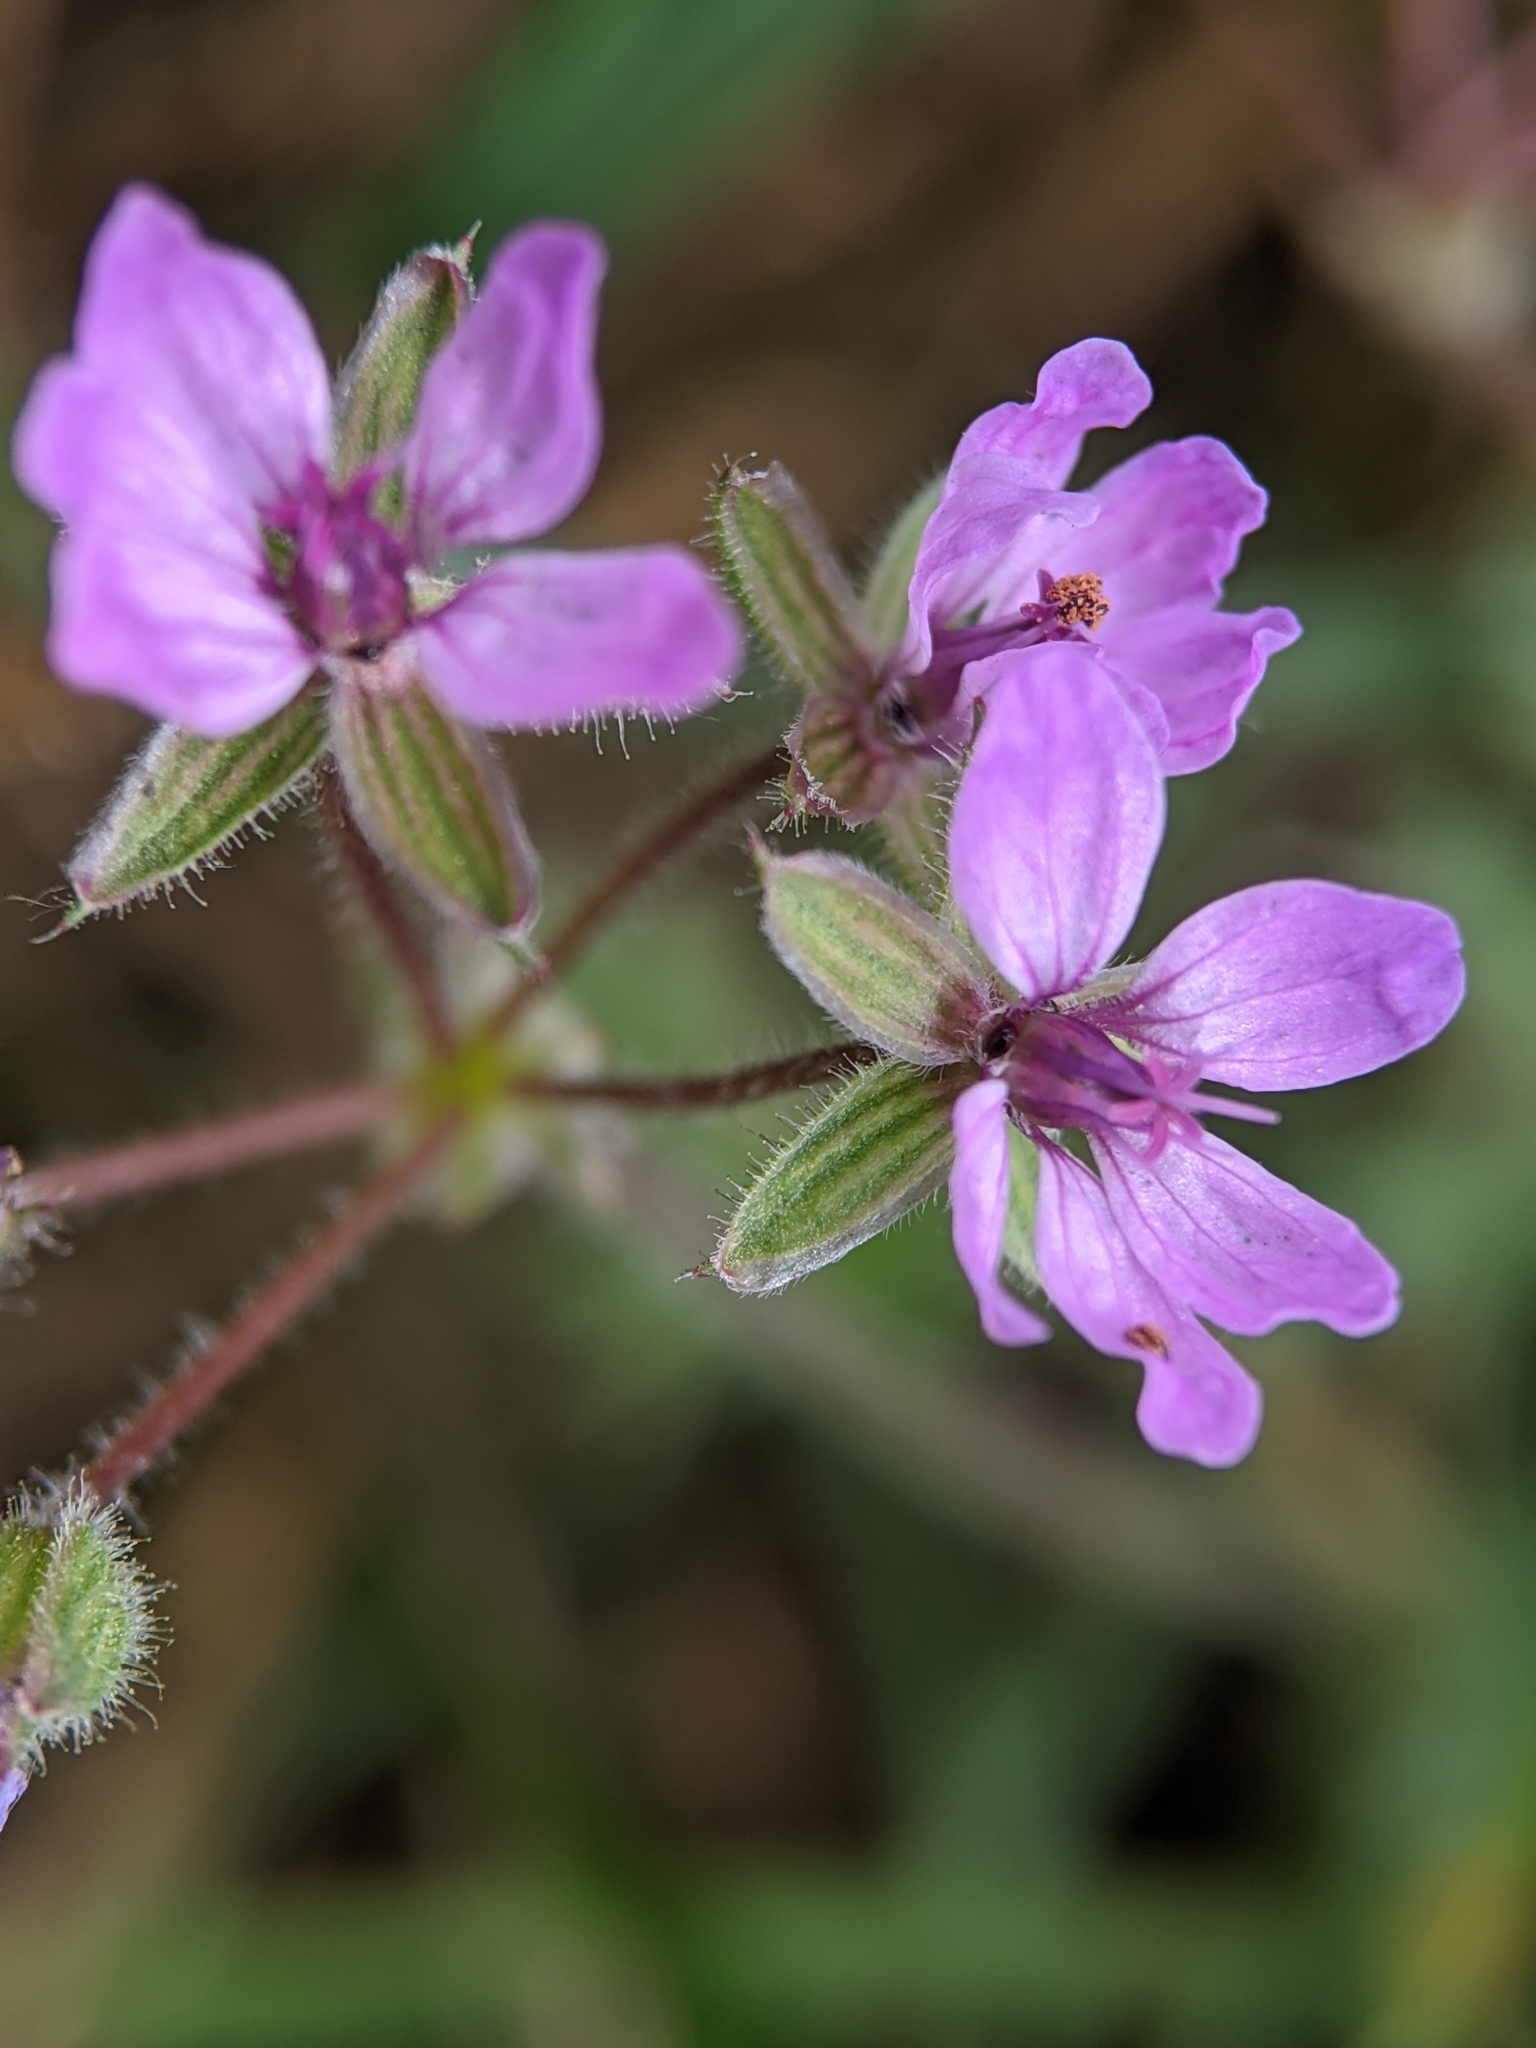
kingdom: Plantae
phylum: Tracheophyta
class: Magnoliopsida
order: Geraniales
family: Geraniaceae
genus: Erodium
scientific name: Erodium cicutarium
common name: Common stork's-bill
